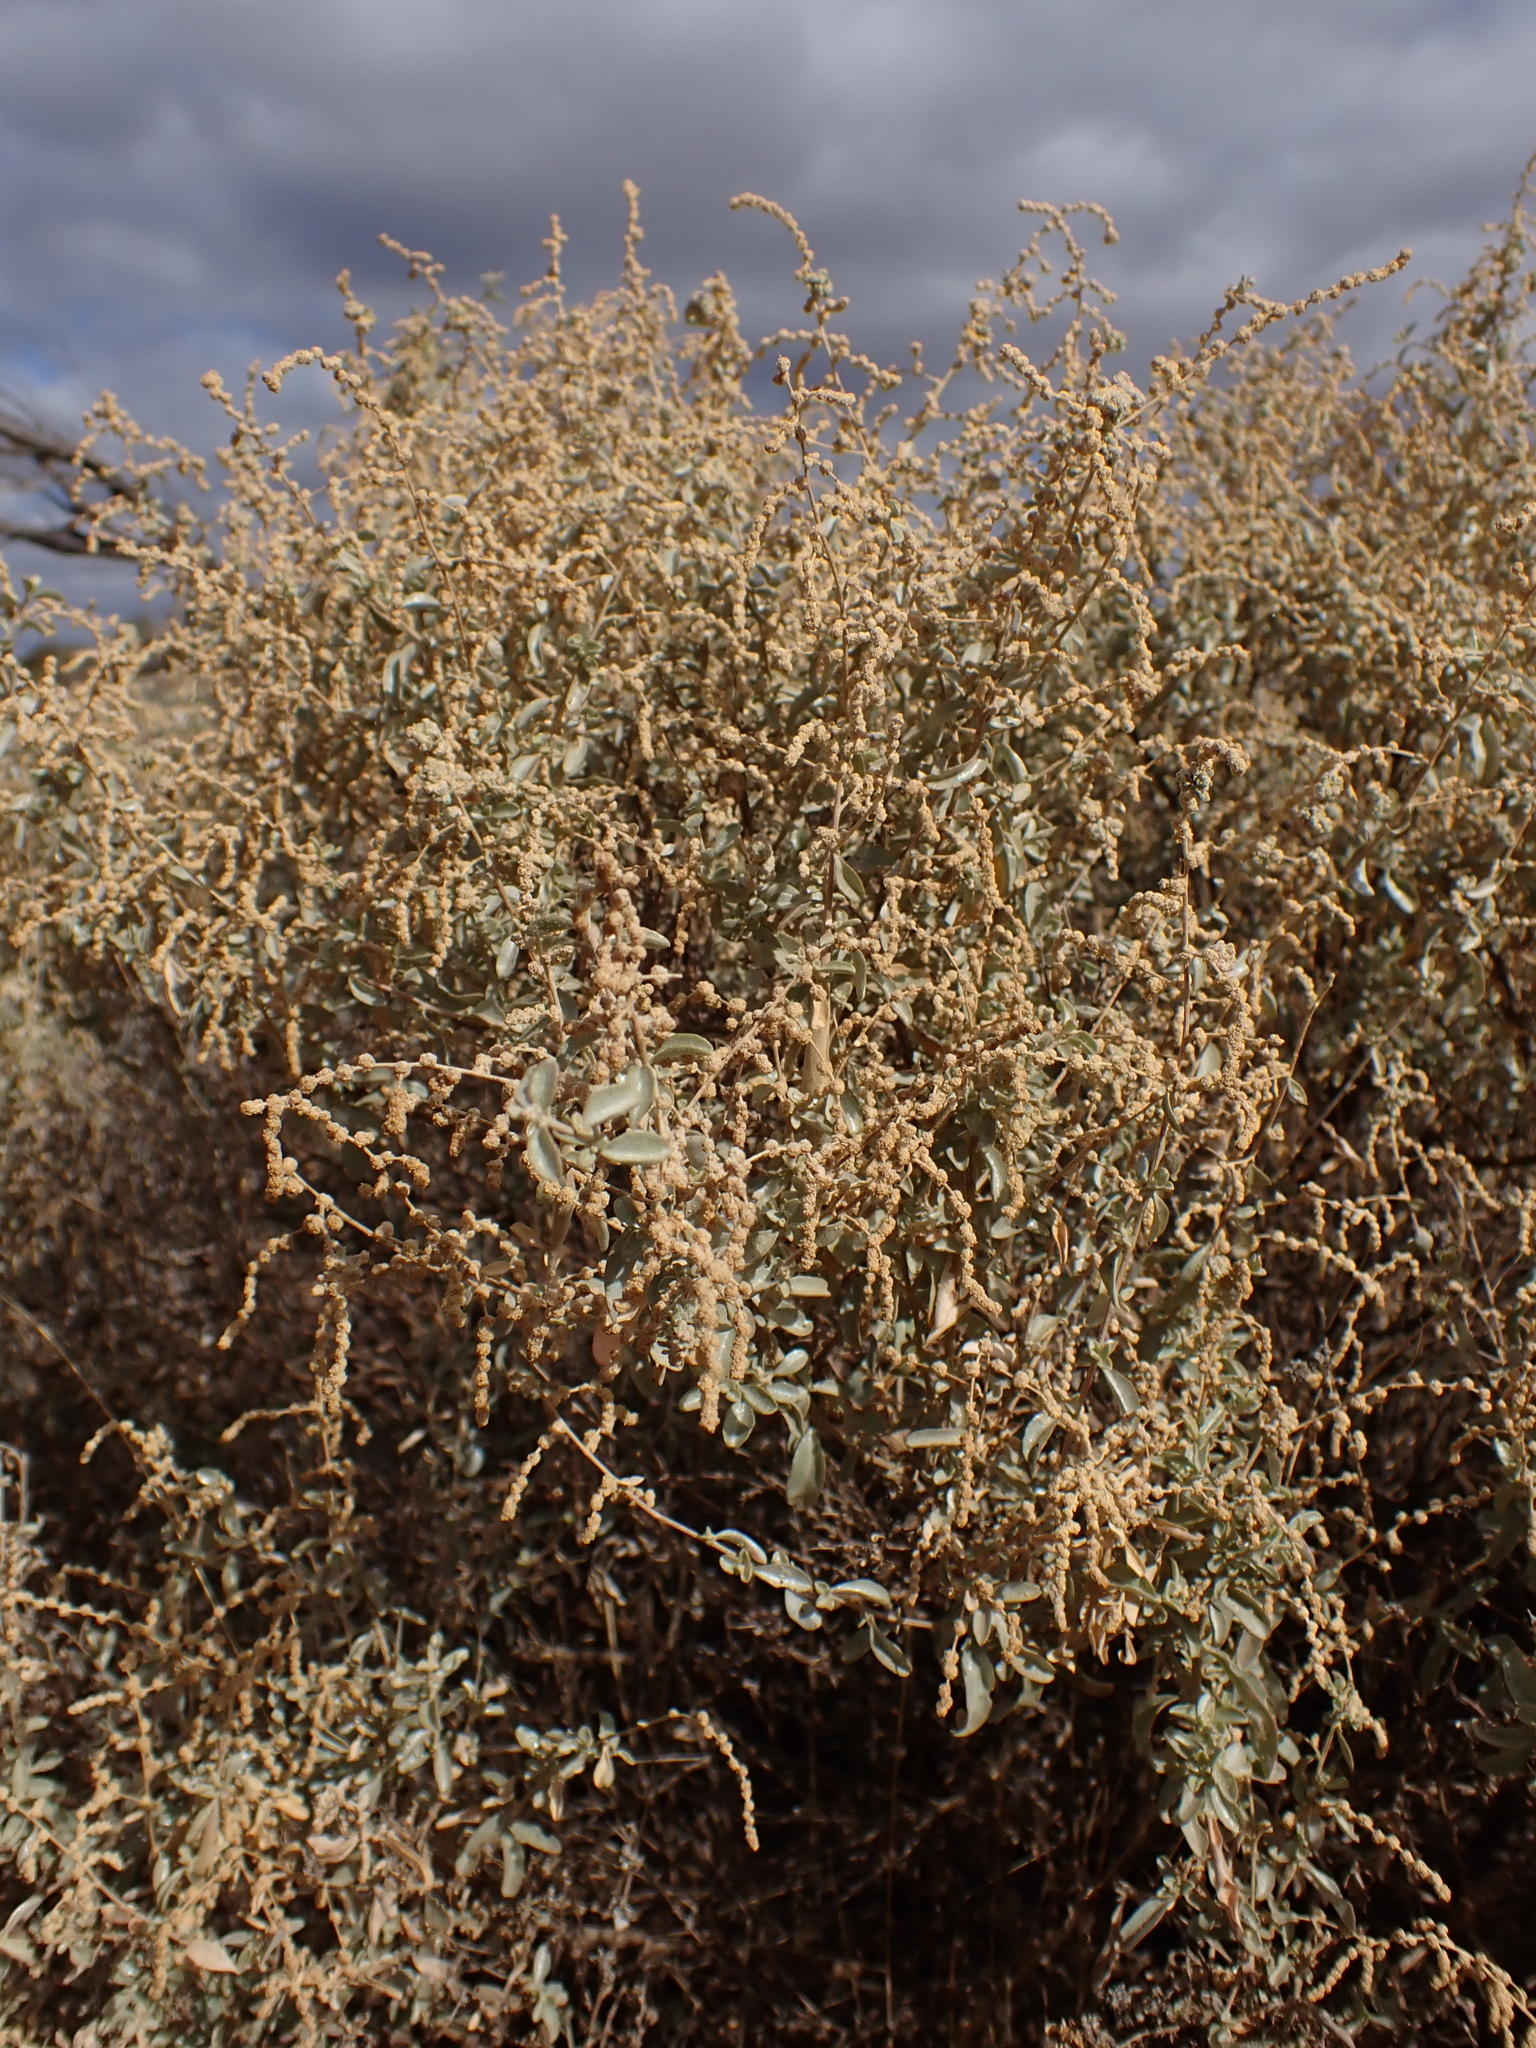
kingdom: Plantae
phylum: Tracheophyta
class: Magnoliopsida
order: Caryophyllales
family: Amaranthaceae
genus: Atriplex
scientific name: Atriplex stipitata
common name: Mallee saltbush
